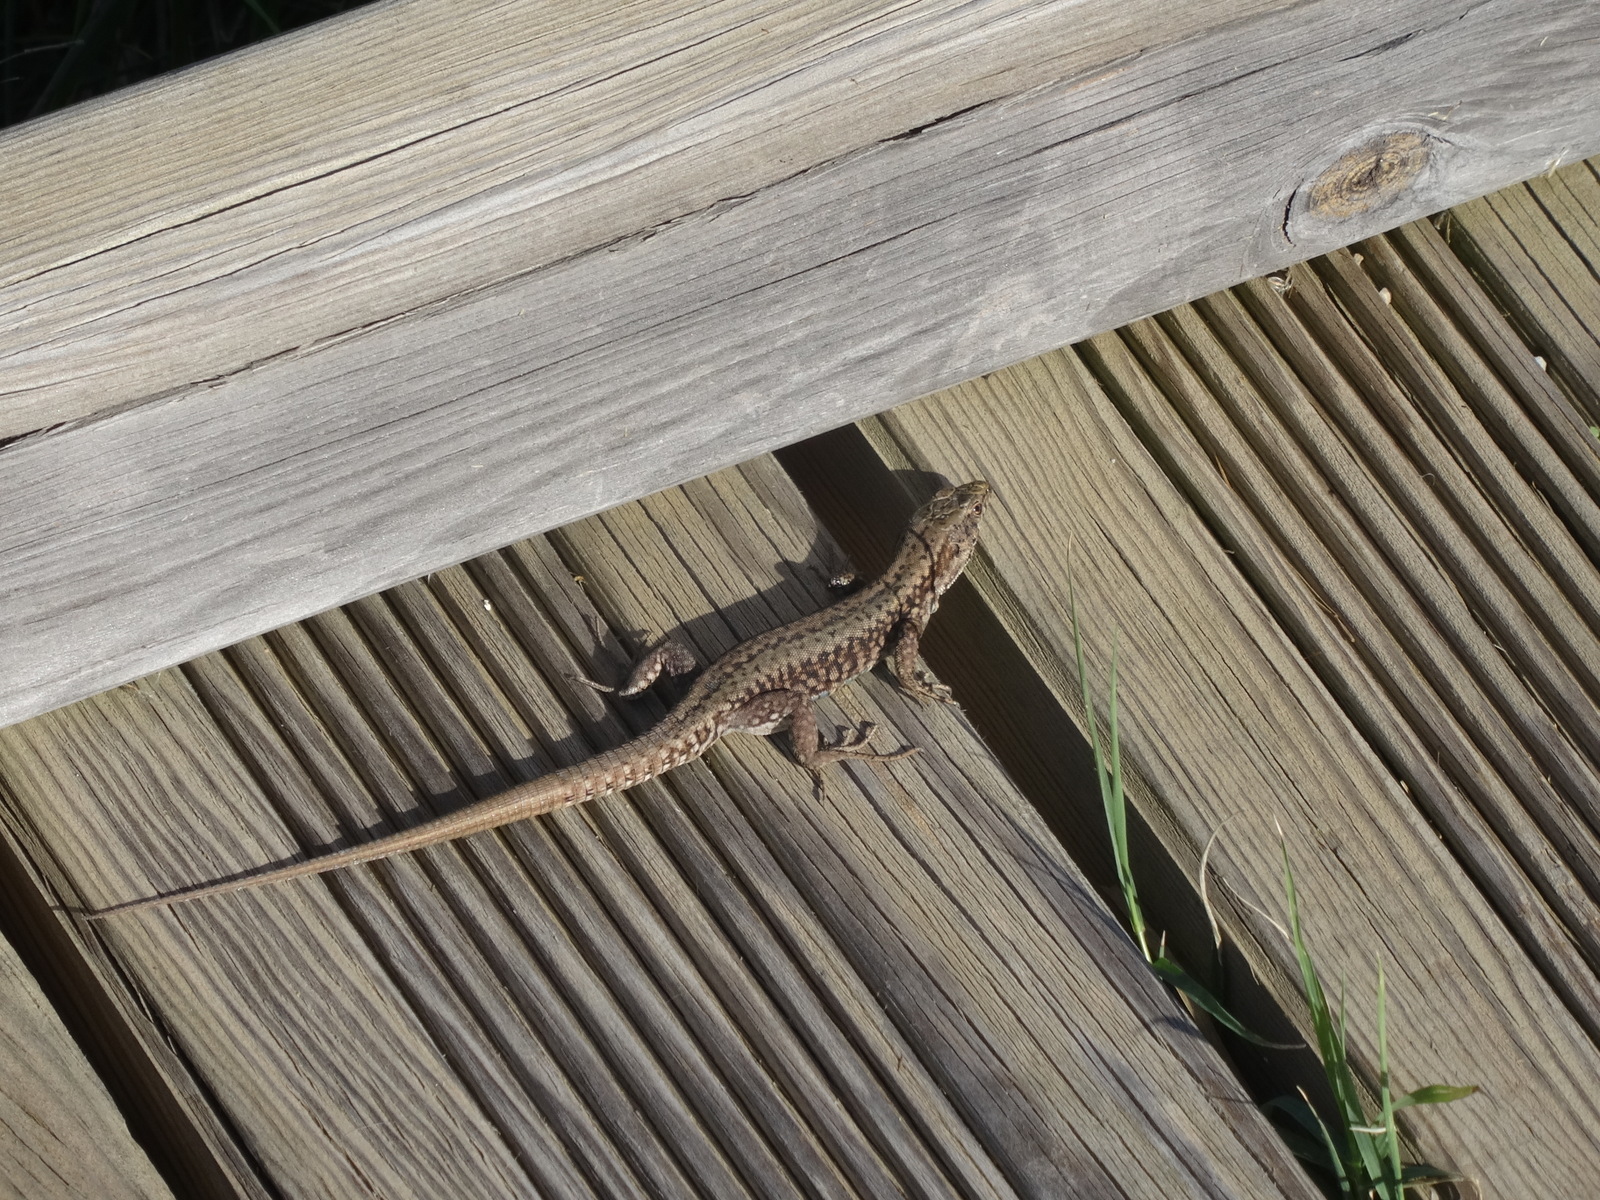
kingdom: Animalia
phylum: Chordata
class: Squamata
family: Lacertidae
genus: Podarcis
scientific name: Podarcis muralis
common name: Common wall lizard
